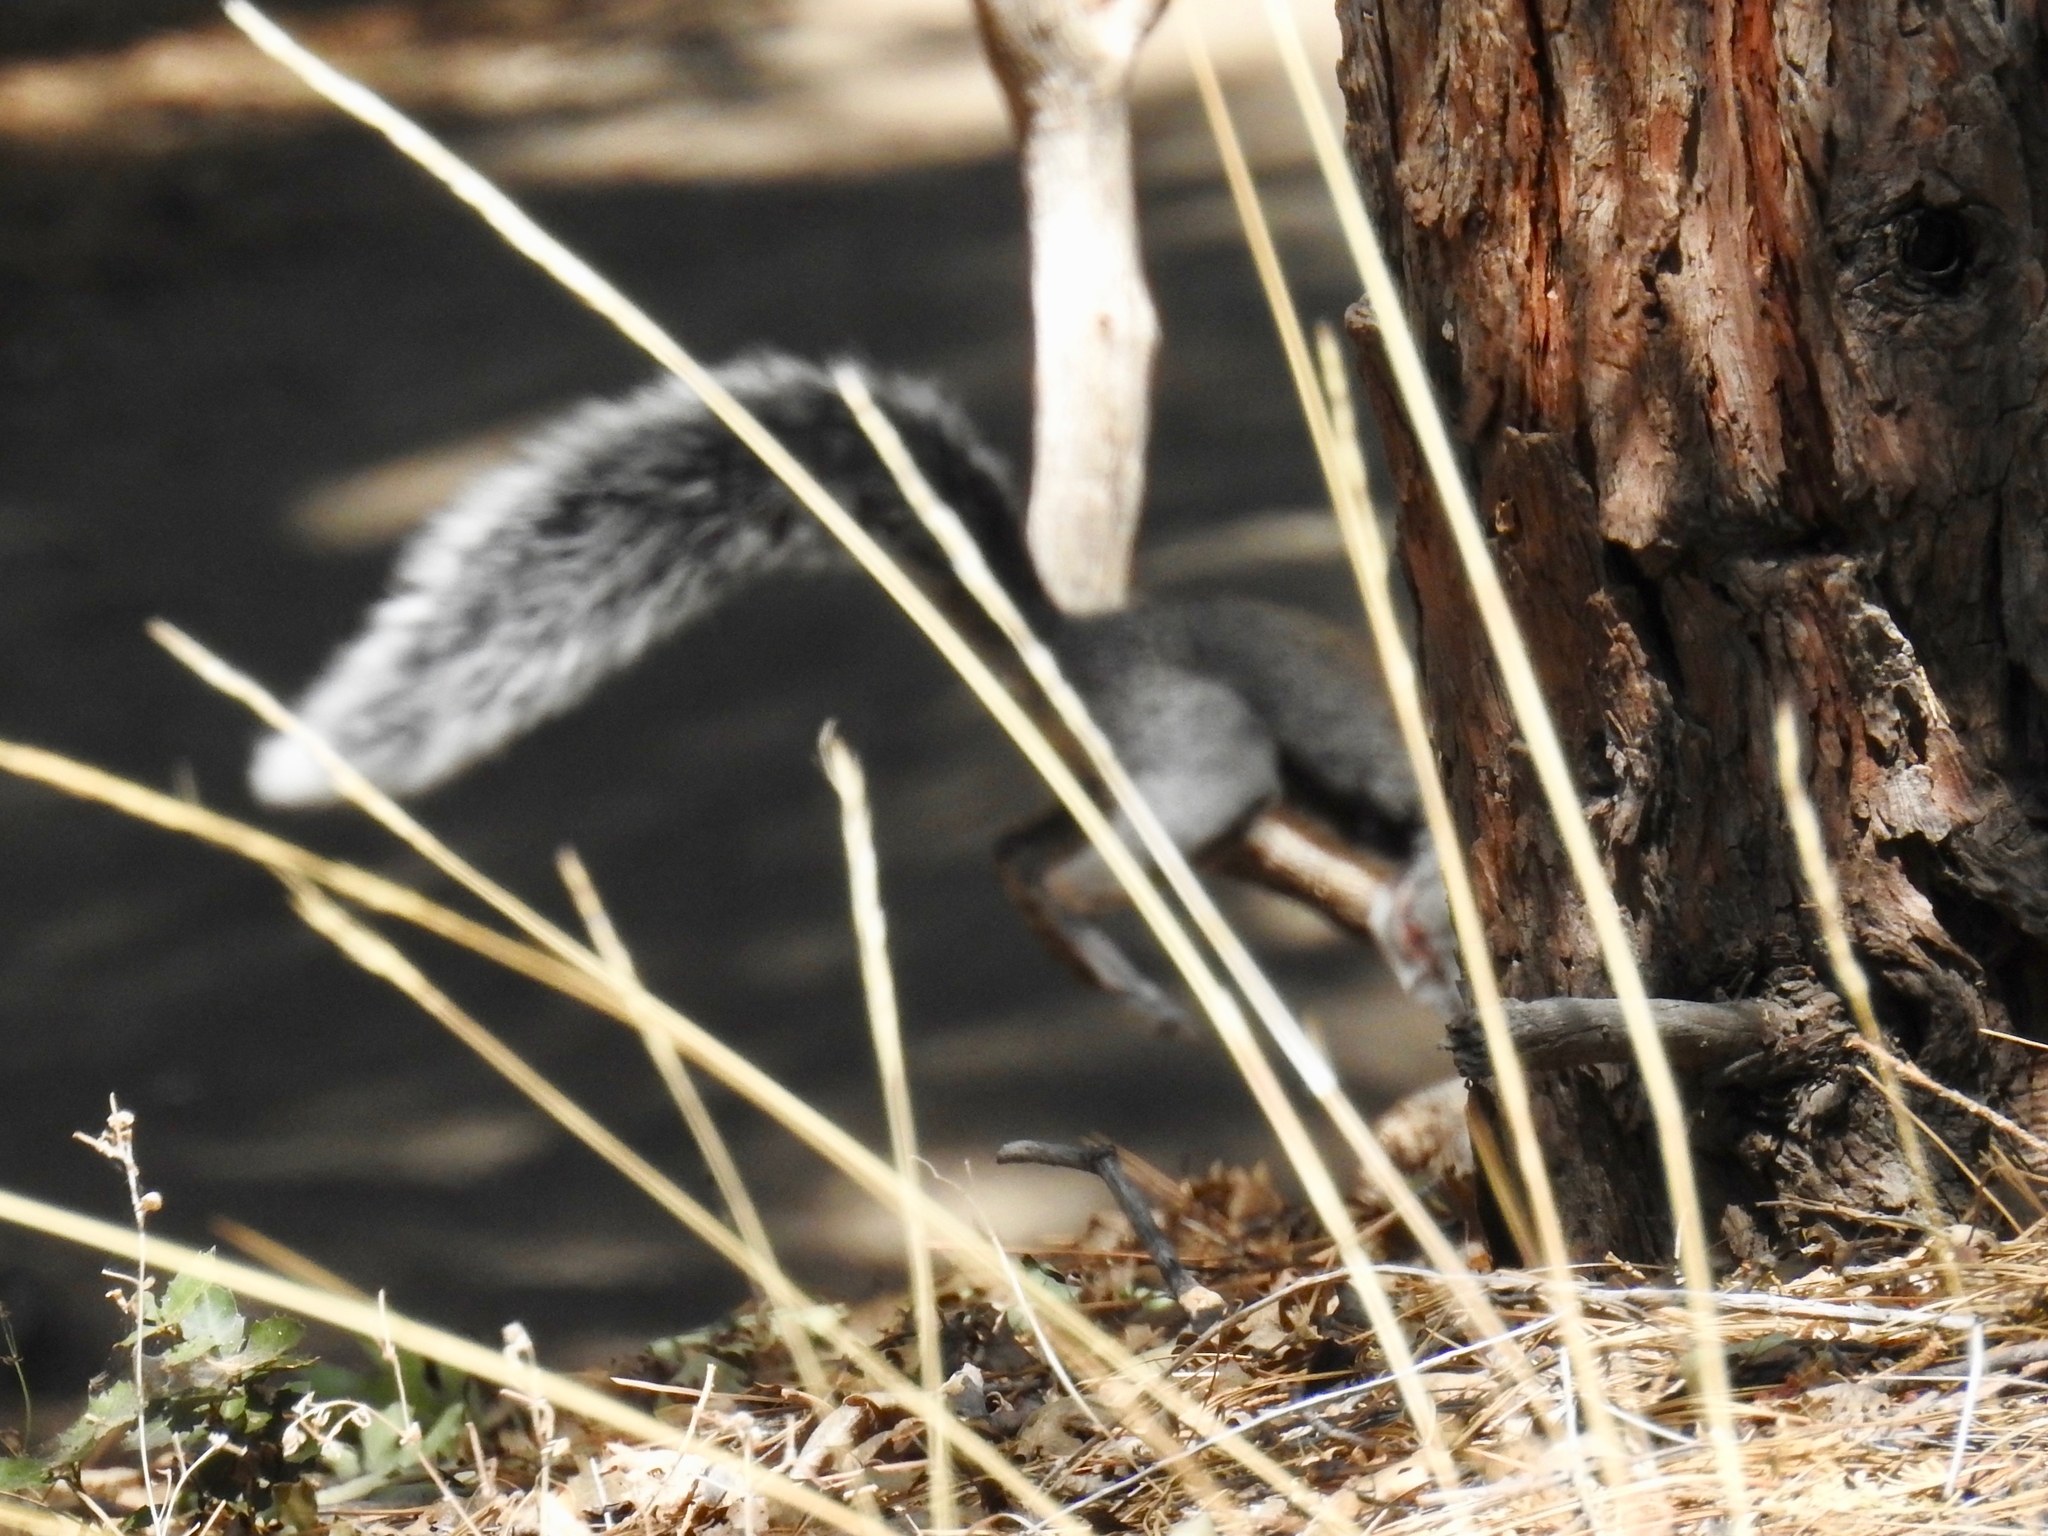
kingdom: Animalia
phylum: Chordata
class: Mammalia
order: Rodentia
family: Sciuridae
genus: Sciurus
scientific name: Sciurus griseus
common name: Western gray squirrel
